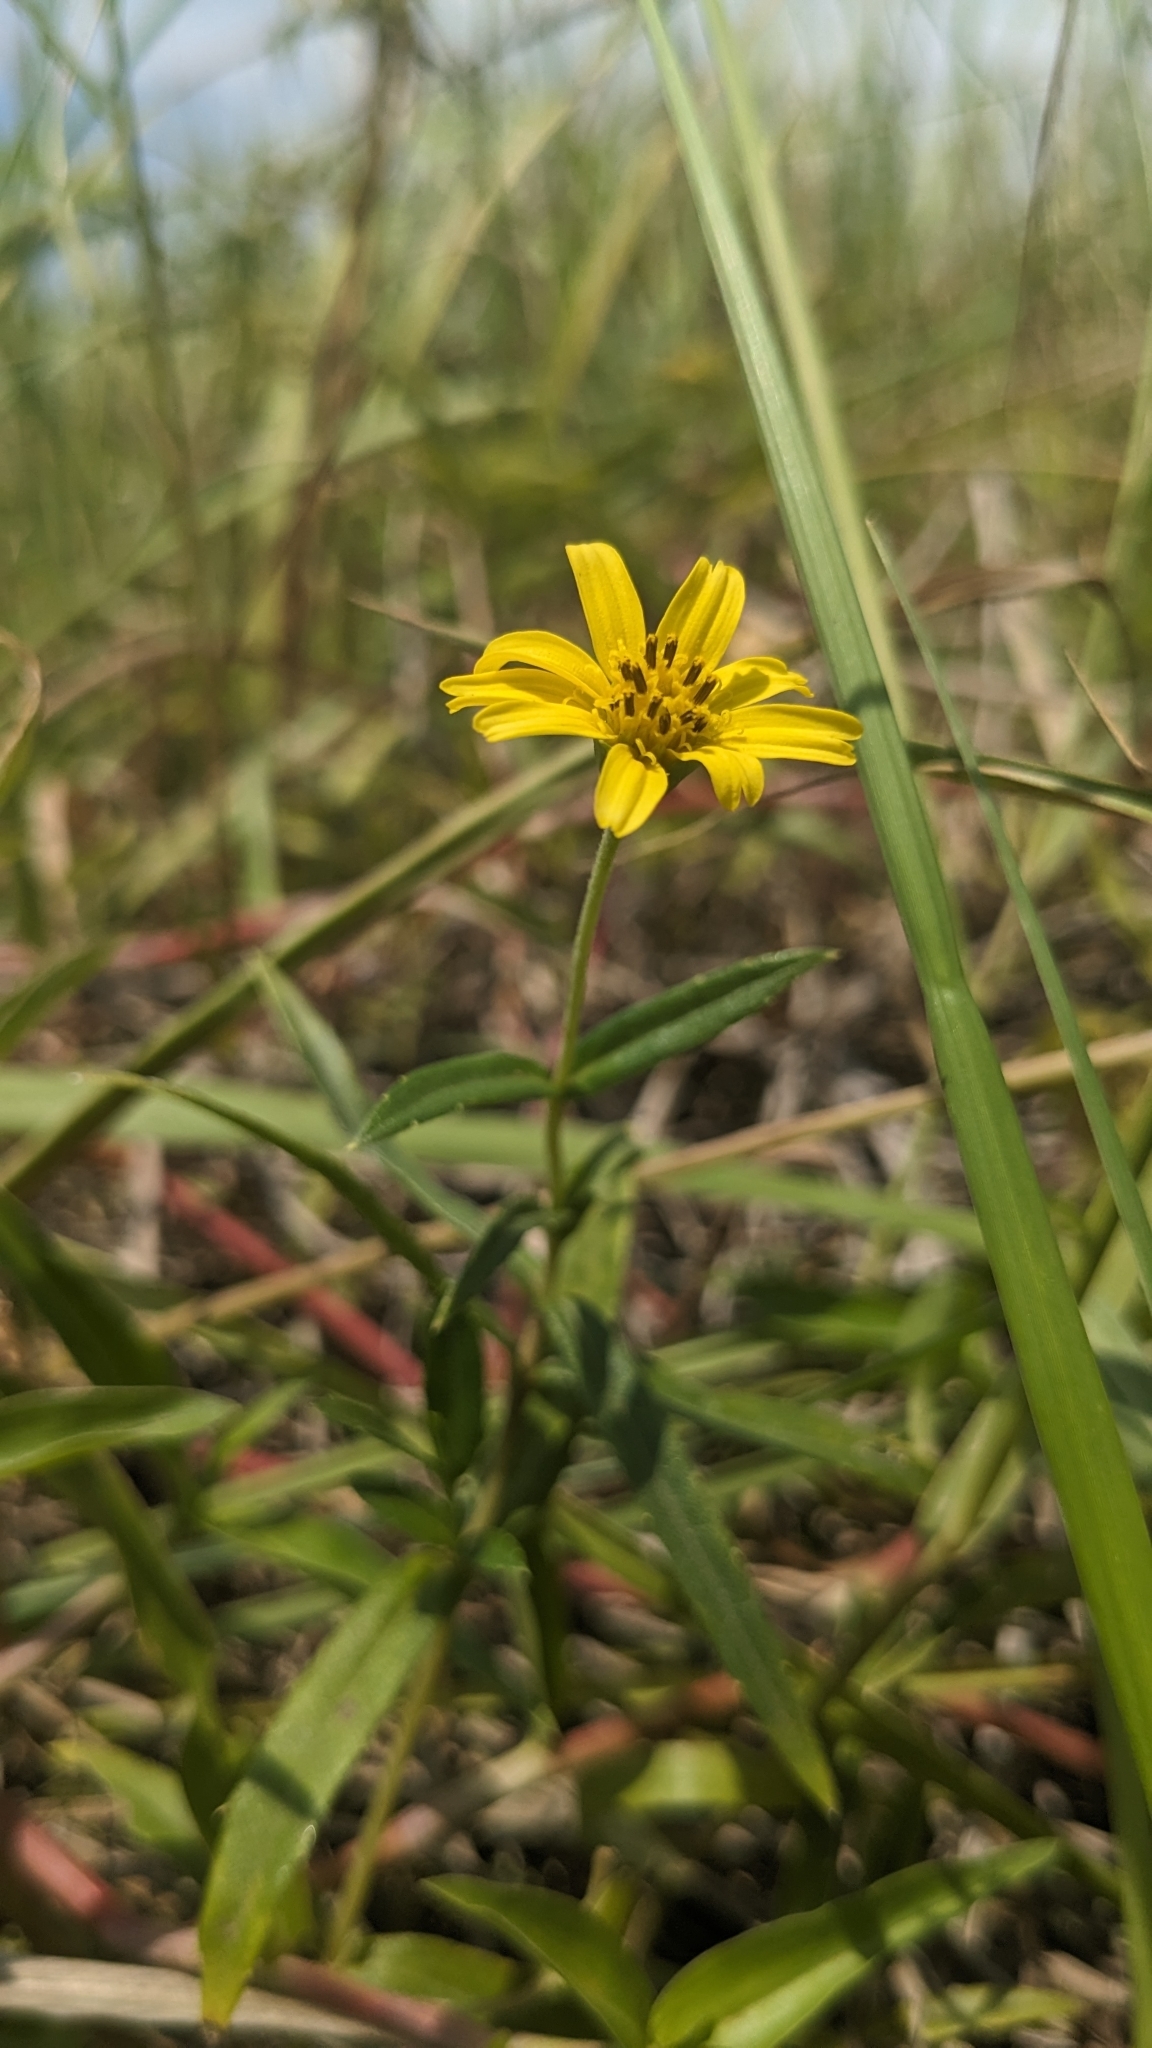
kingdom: Plantae
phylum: Tracheophyta
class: Magnoliopsida
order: Asterales
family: Asteraceae
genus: Sphagneticola
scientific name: Sphagneticola calendulacea
